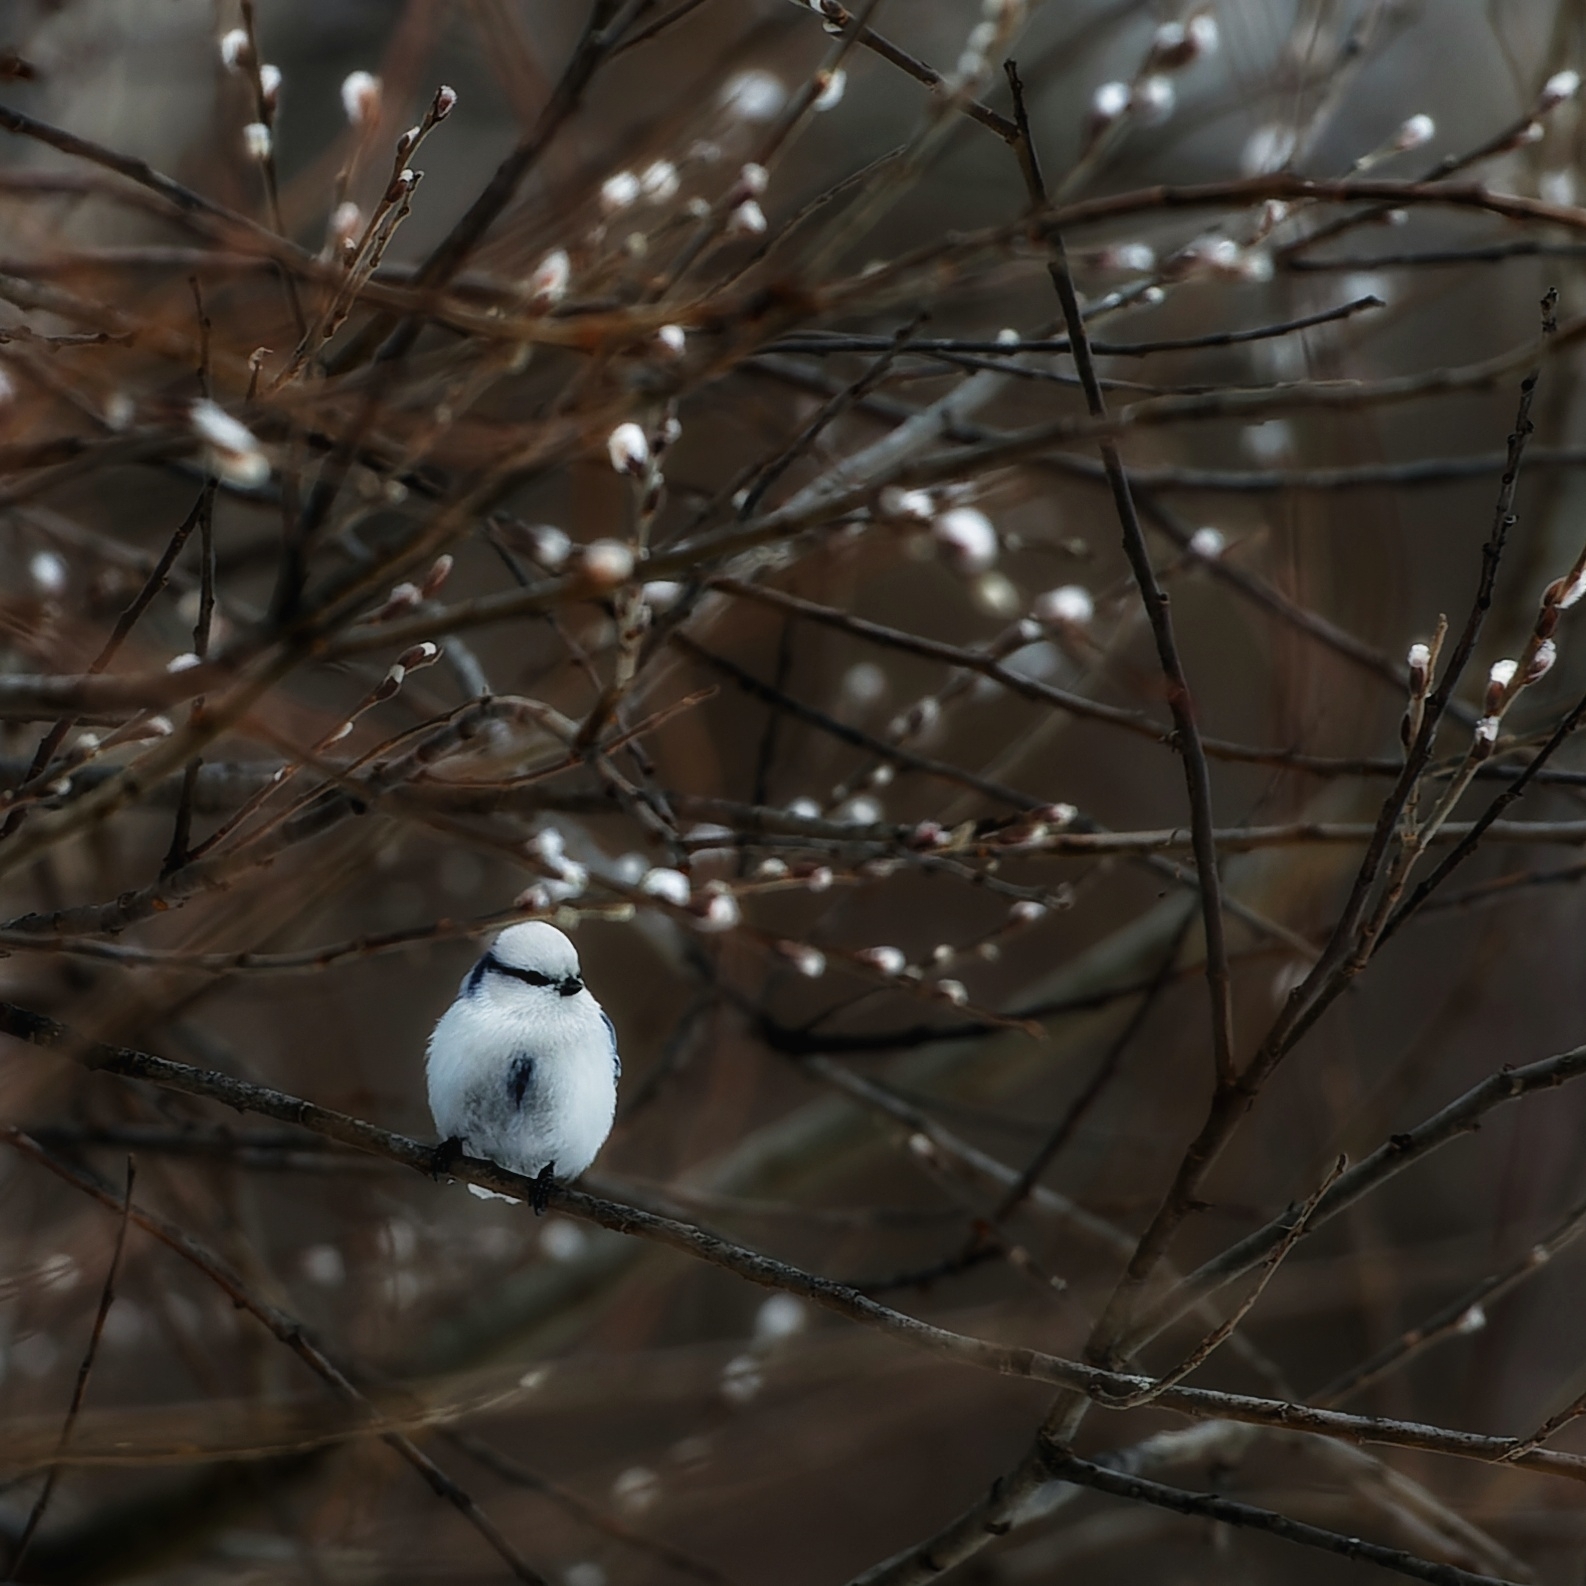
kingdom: Animalia
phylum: Chordata
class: Aves
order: Passeriformes
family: Paridae
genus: Cyanistes
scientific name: Cyanistes cyanus
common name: Azure tit
